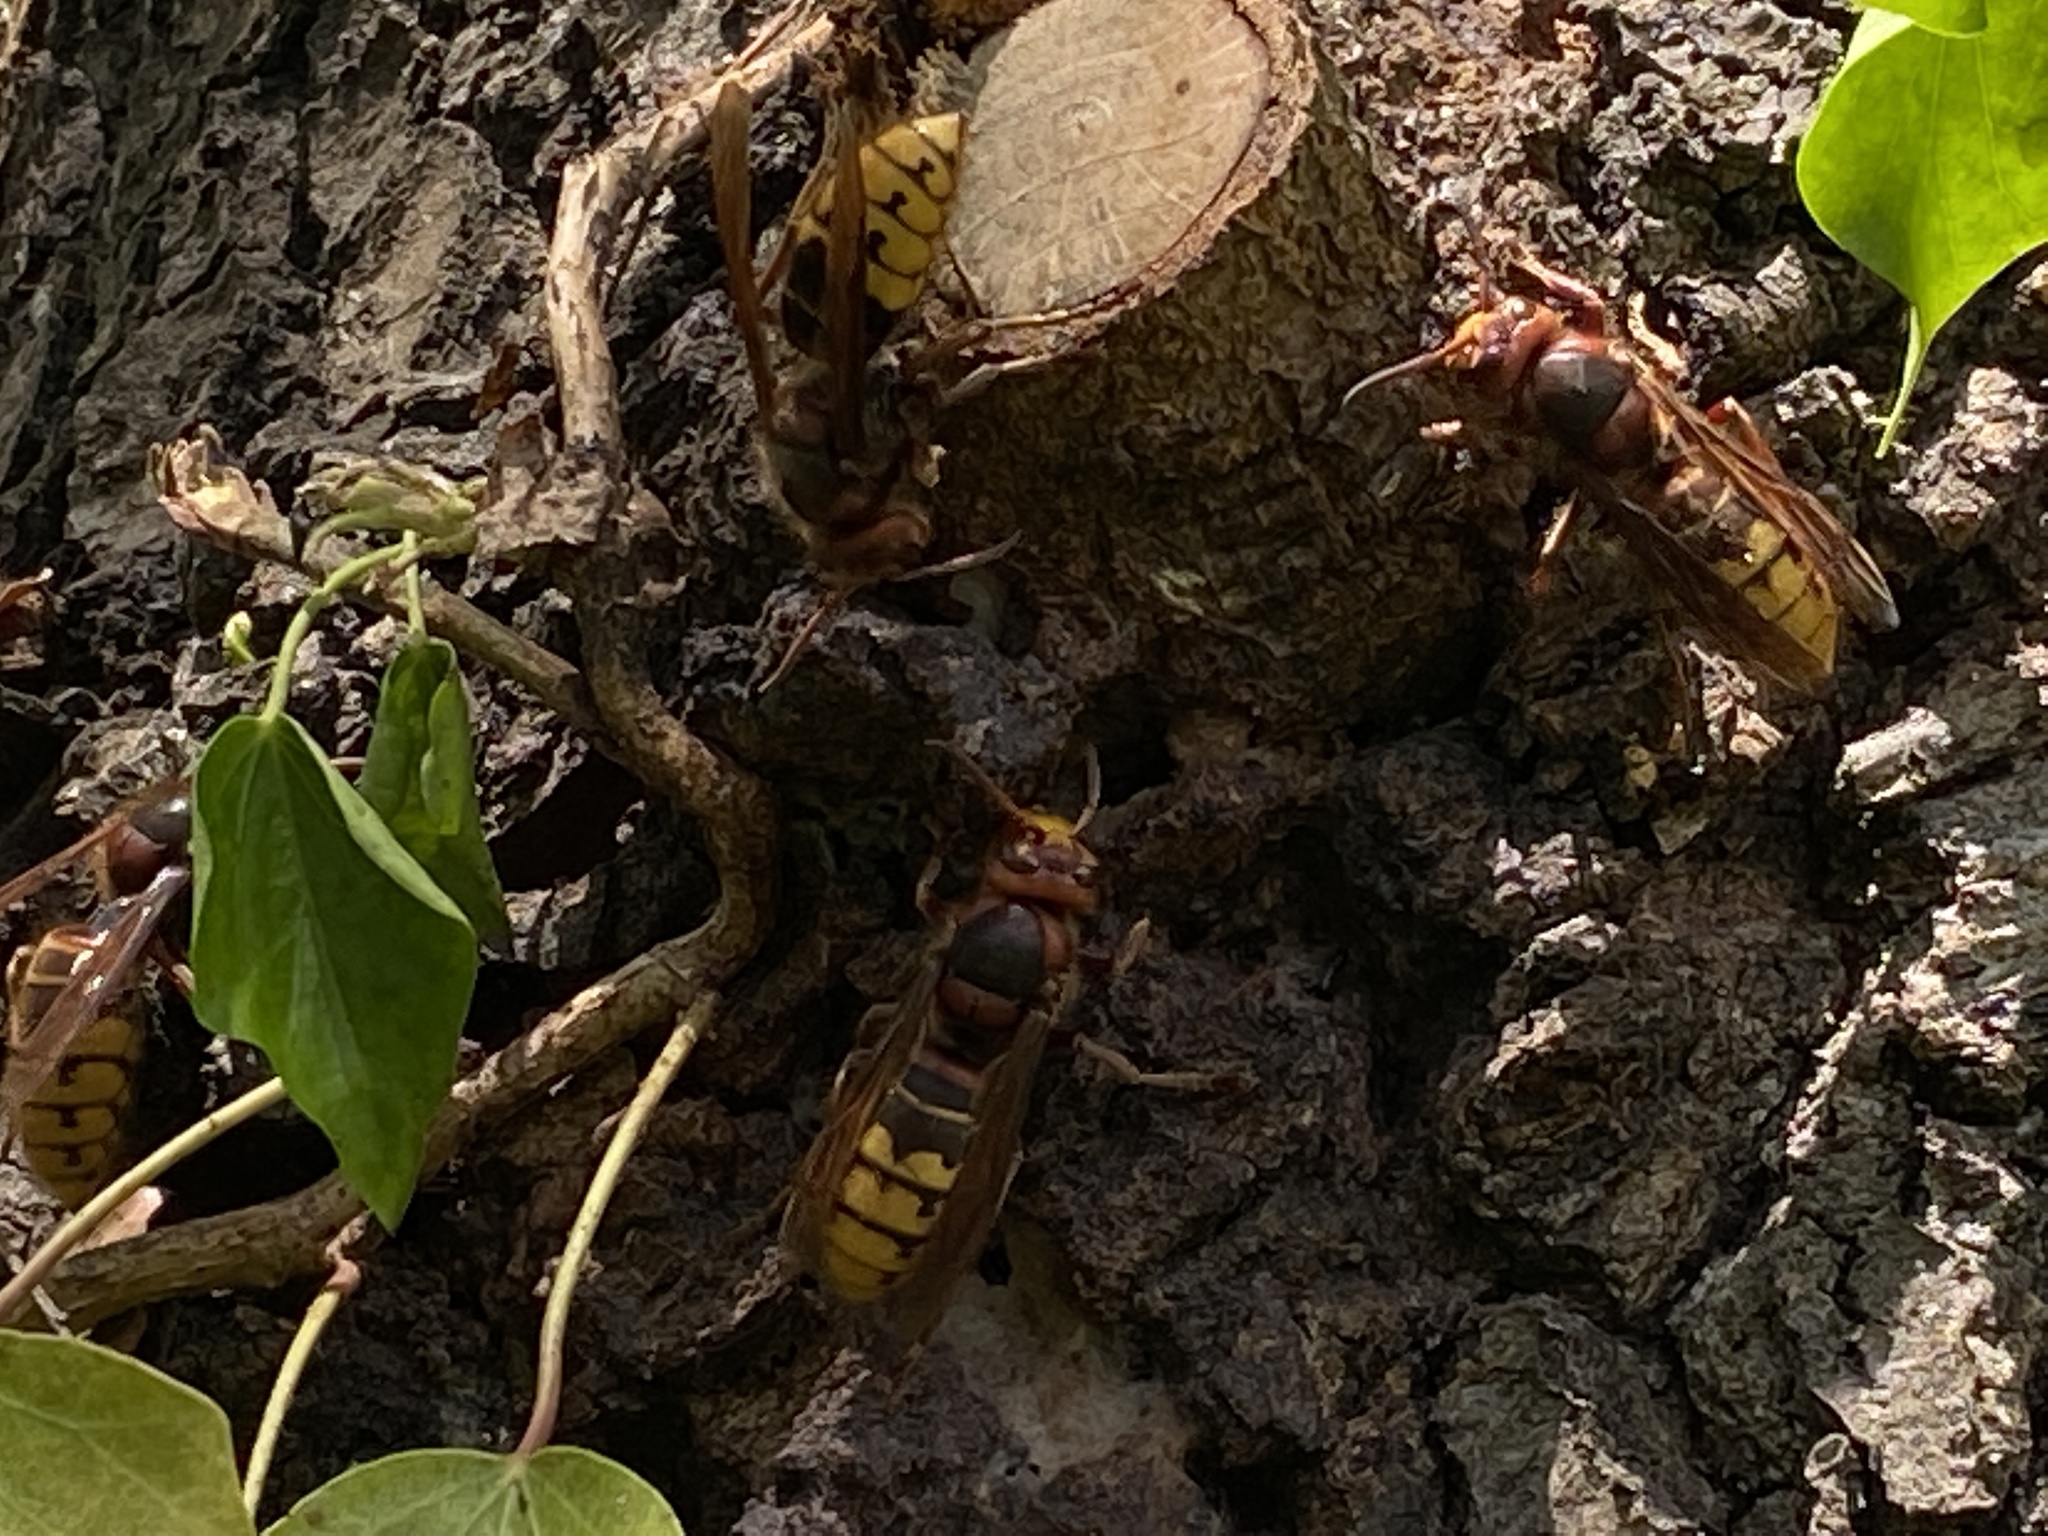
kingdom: Animalia
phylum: Arthropoda
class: Insecta
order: Hymenoptera
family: Vespidae
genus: Vespa
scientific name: Vespa crabro
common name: Hornet
